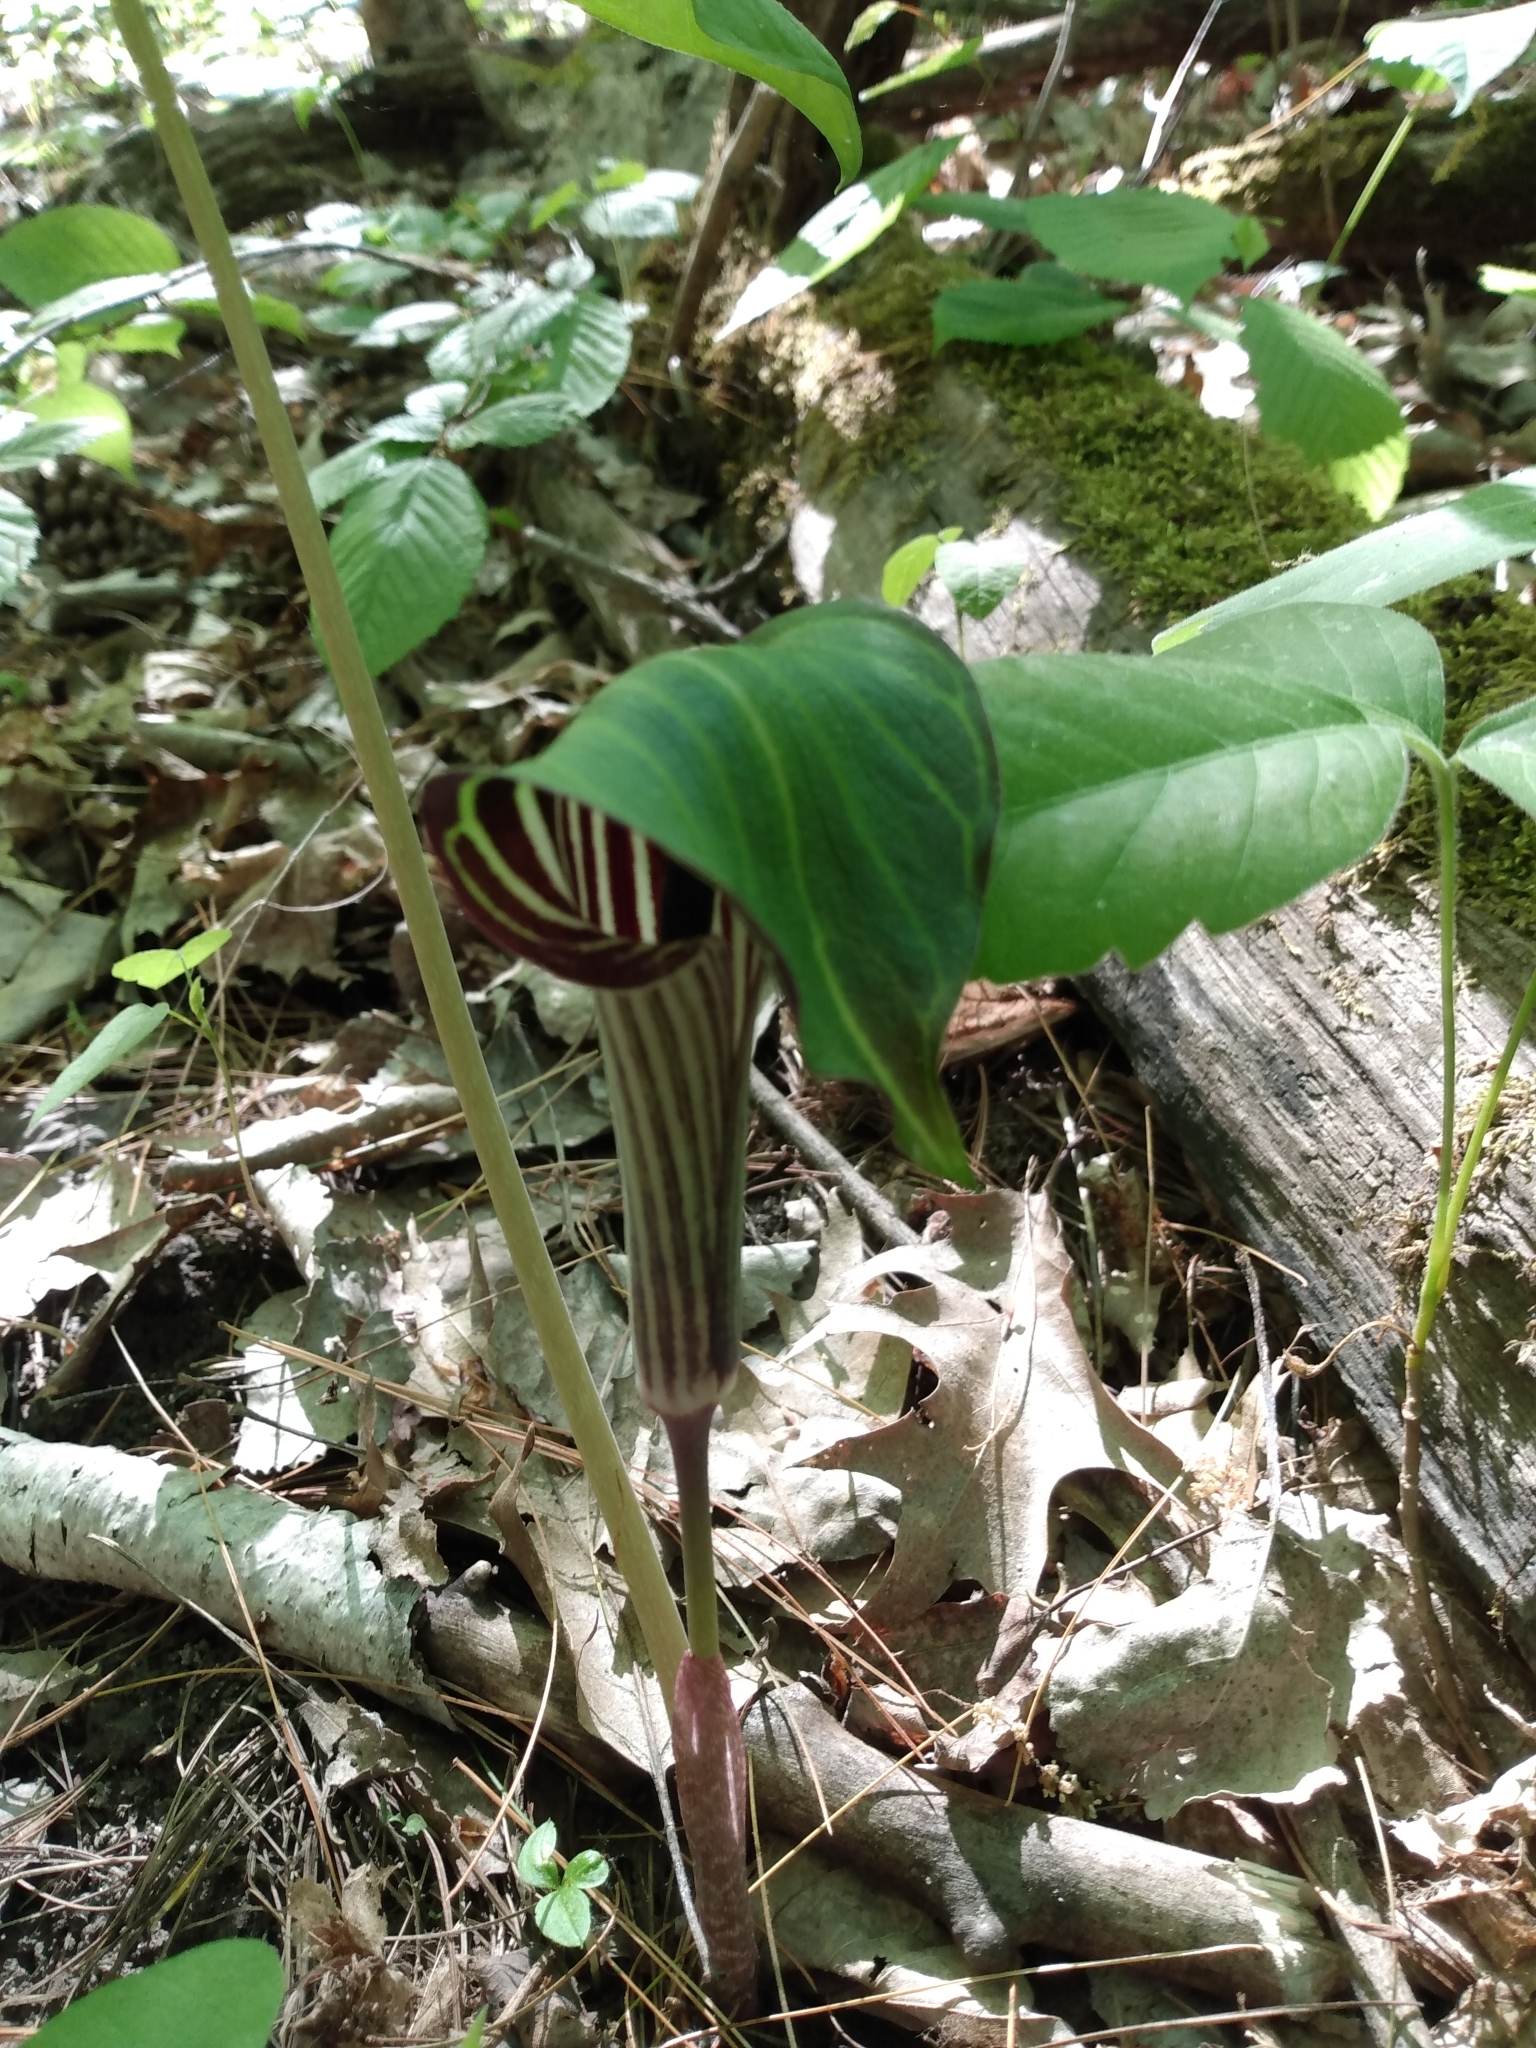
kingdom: Plantae
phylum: Tracheophyta
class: Liliopsida
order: Alismatales
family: Araceae
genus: Arisaema
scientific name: Arisaema triphyllum
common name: Jack-in-the-pulpit
